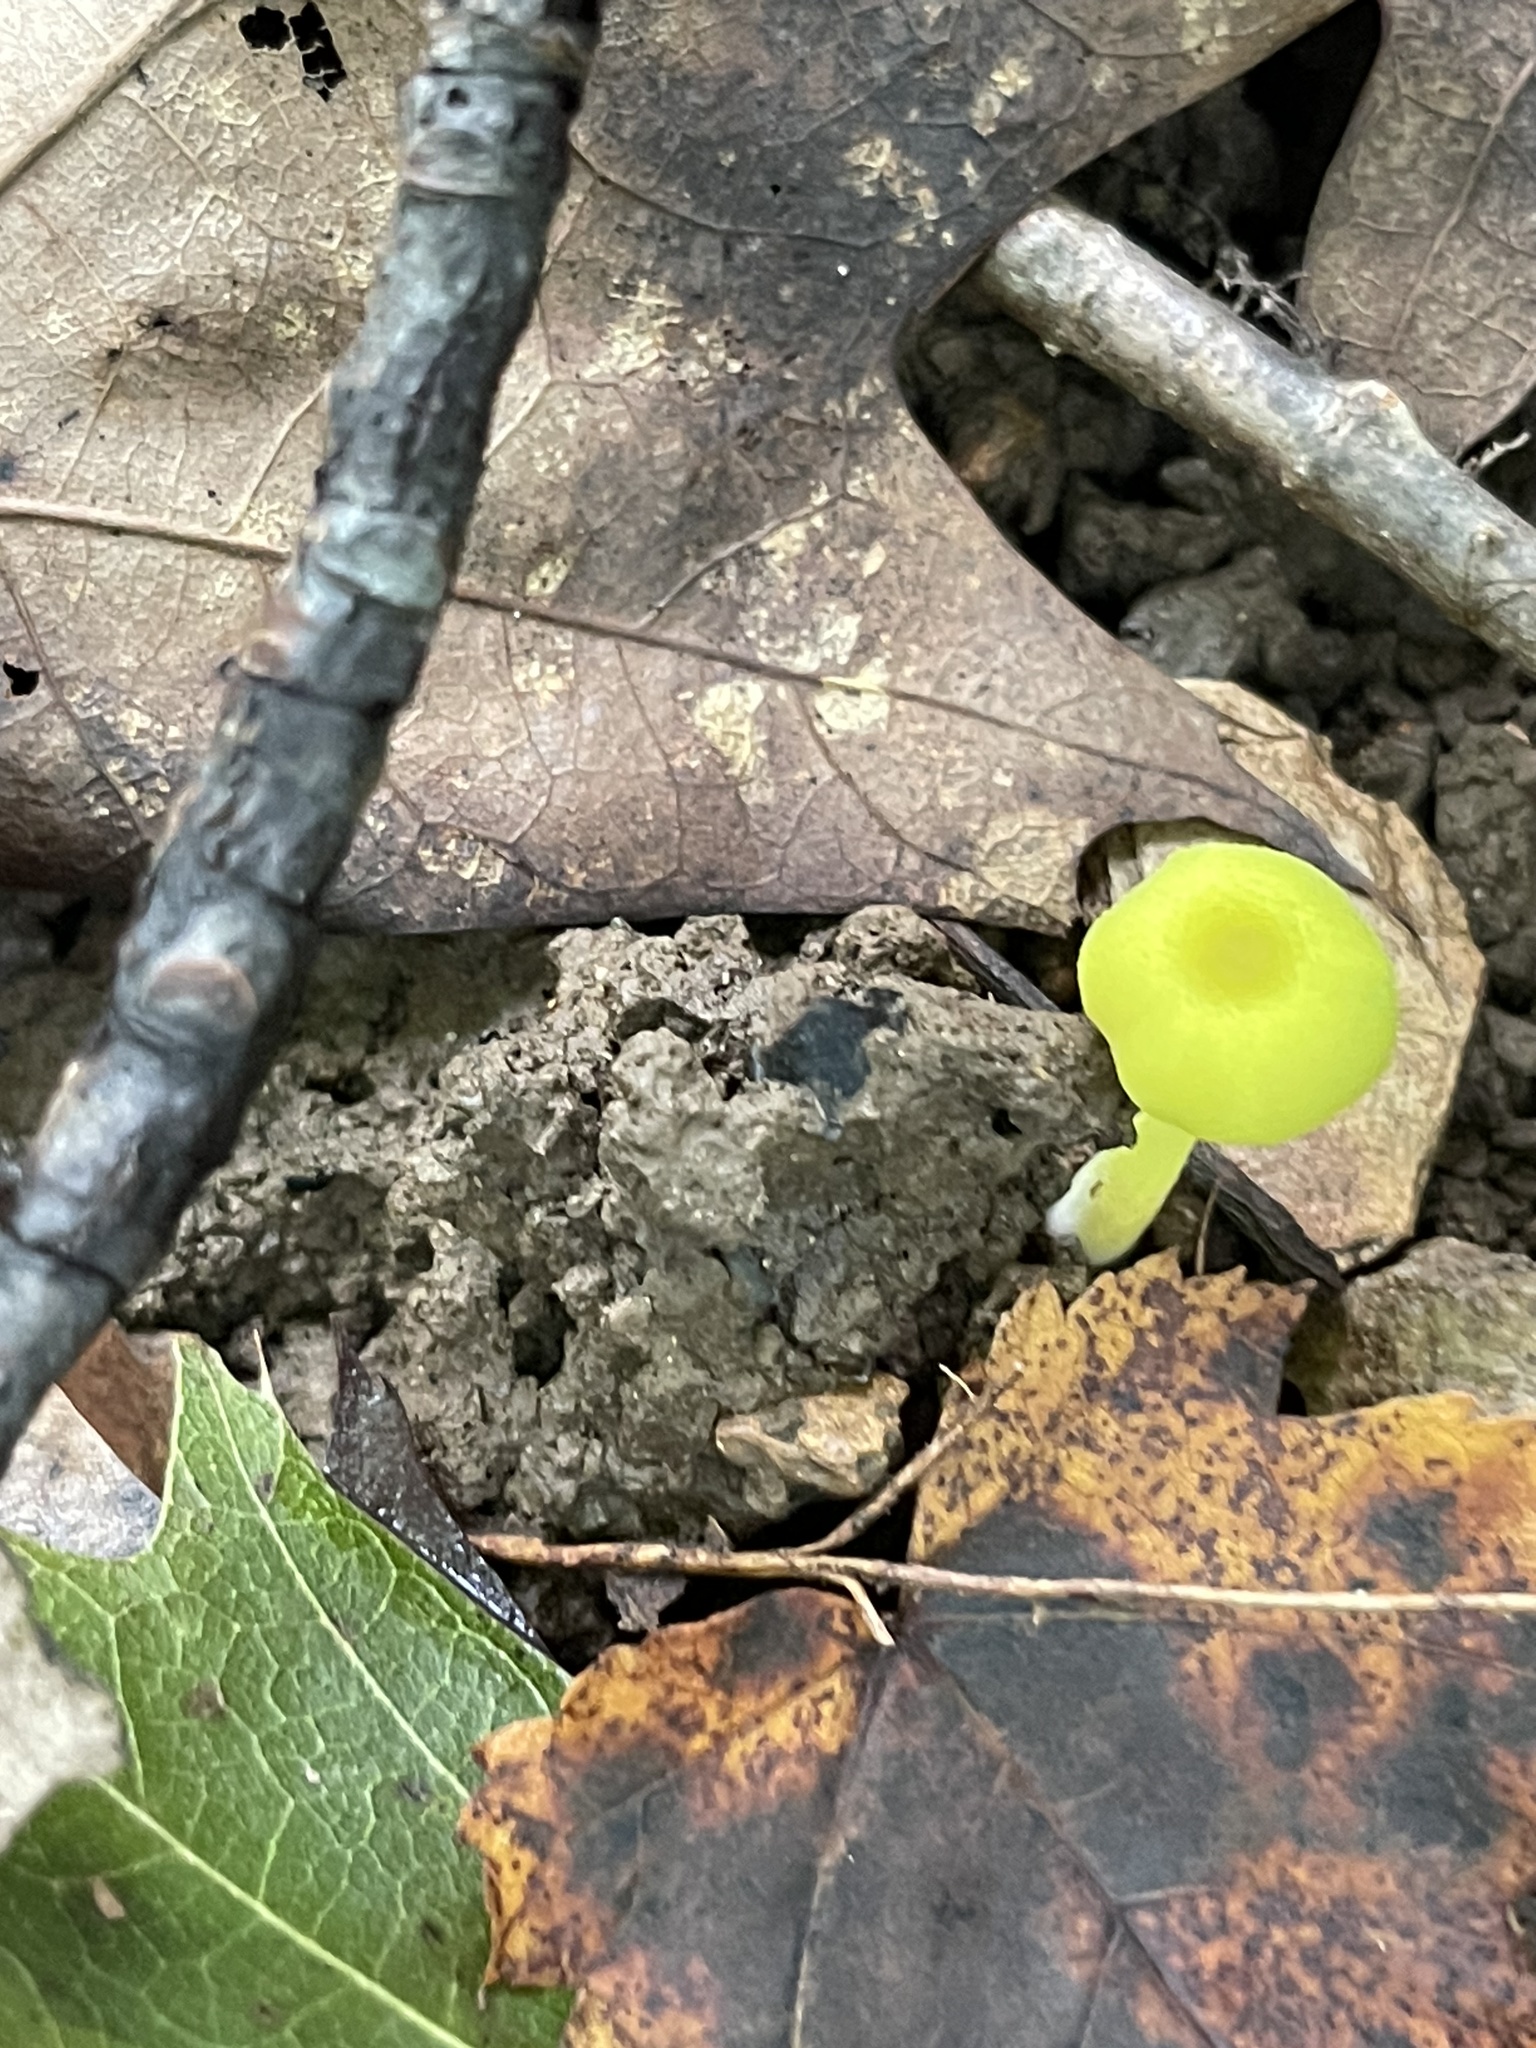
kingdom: Fungi
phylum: Basidiomycota
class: Agaricomycetes
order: Agaricales
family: Hygrophoraceae
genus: Gliophorus
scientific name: Gliophorus psittacinus
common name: Parrot wax-cap
